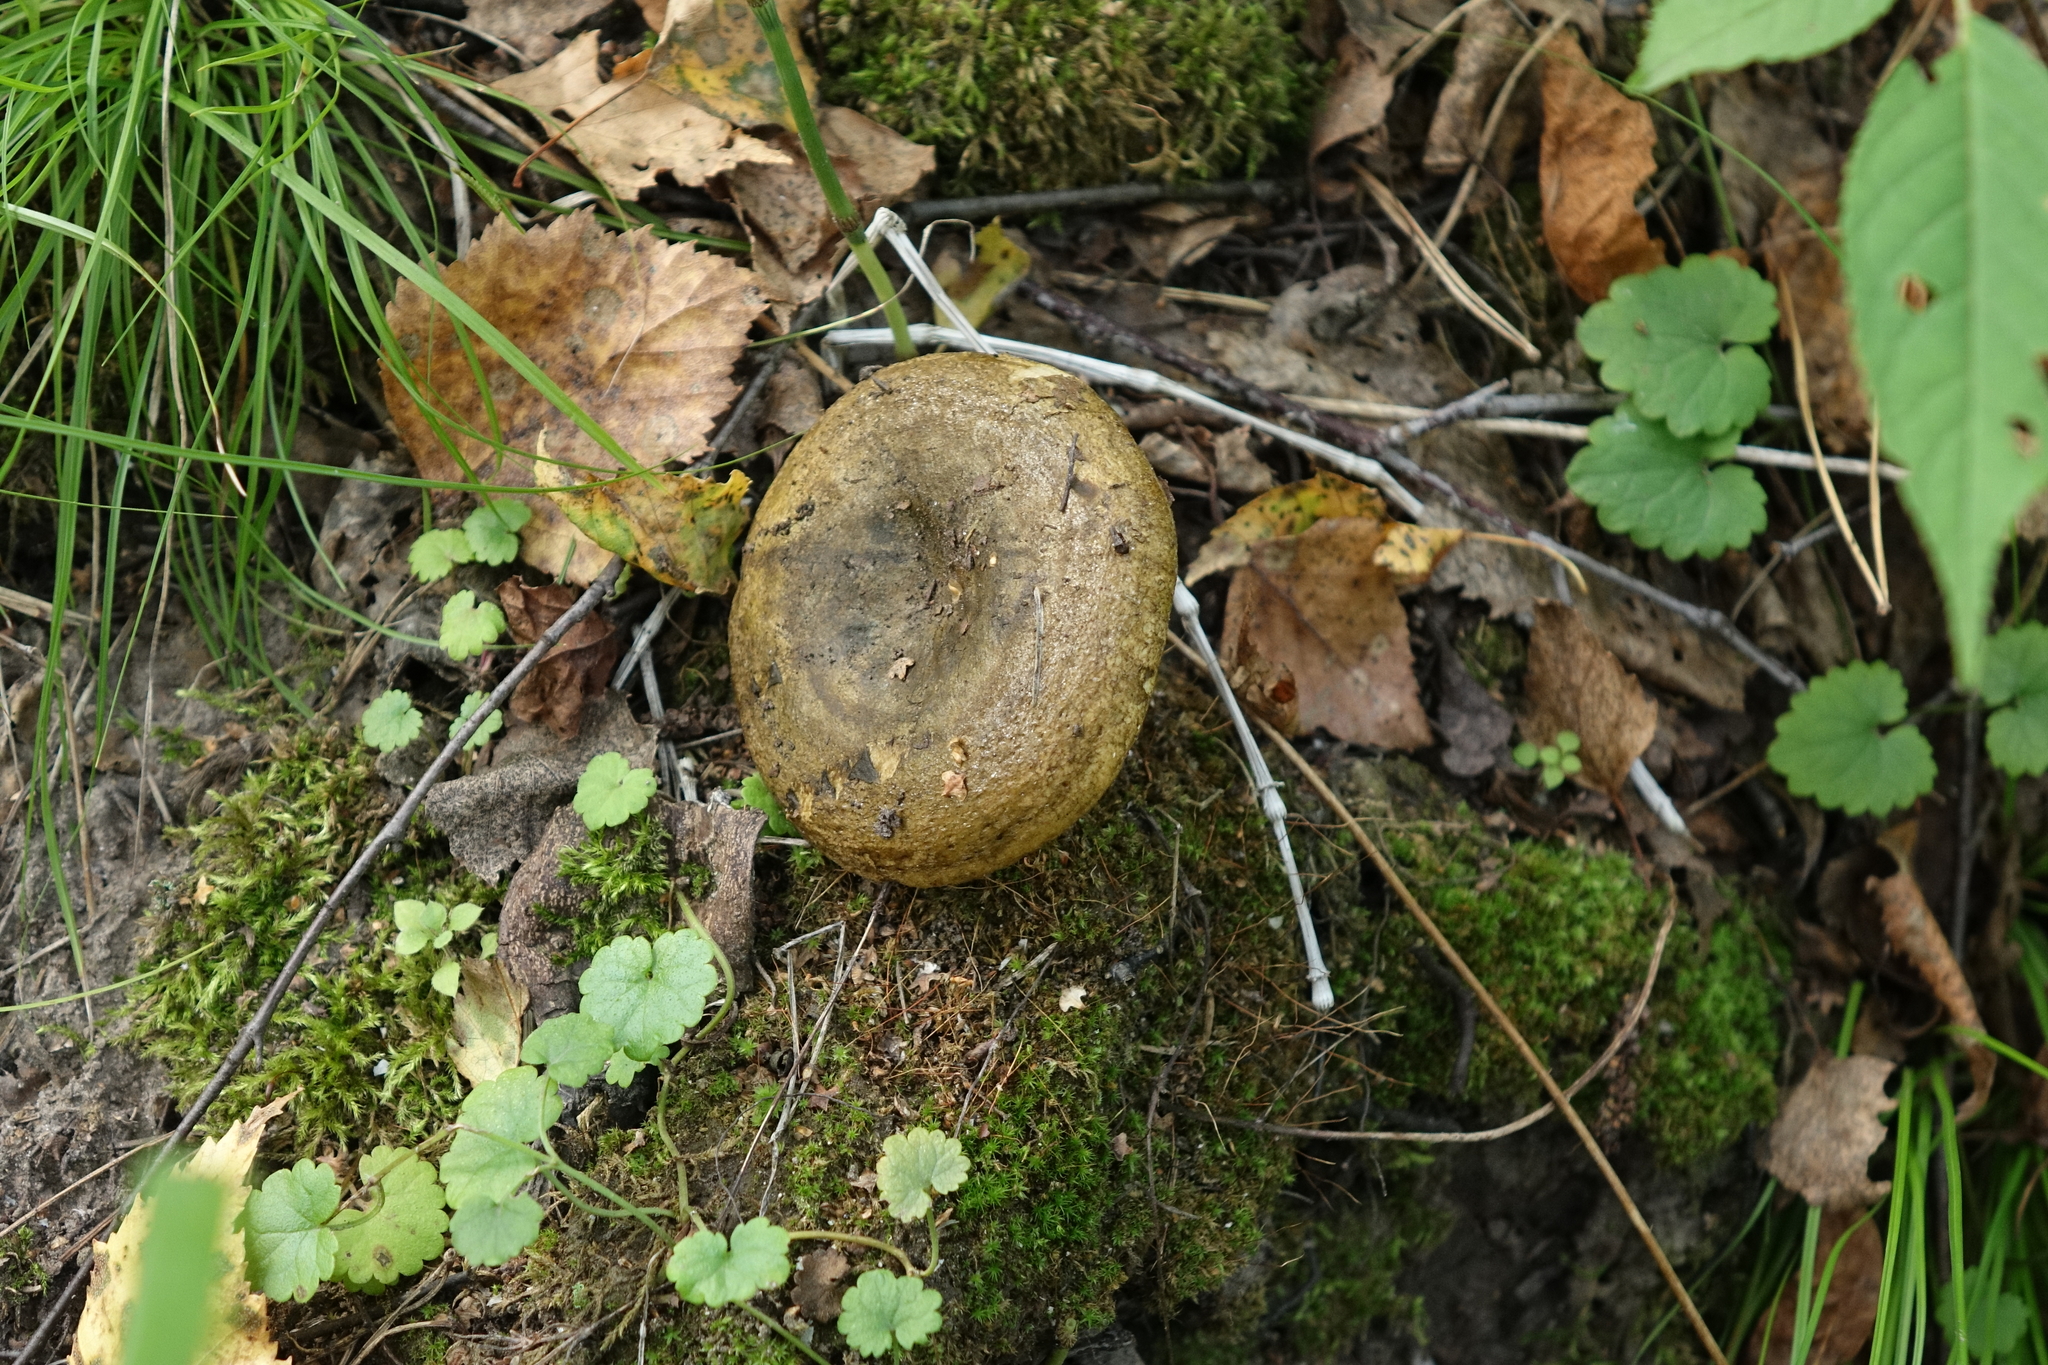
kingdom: Fungi
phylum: Basidiomycota
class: Agaricomycetes
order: Russulales
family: Russulaceae
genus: Lactarius
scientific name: Lactarius turpis
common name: Ugly milk-cap
